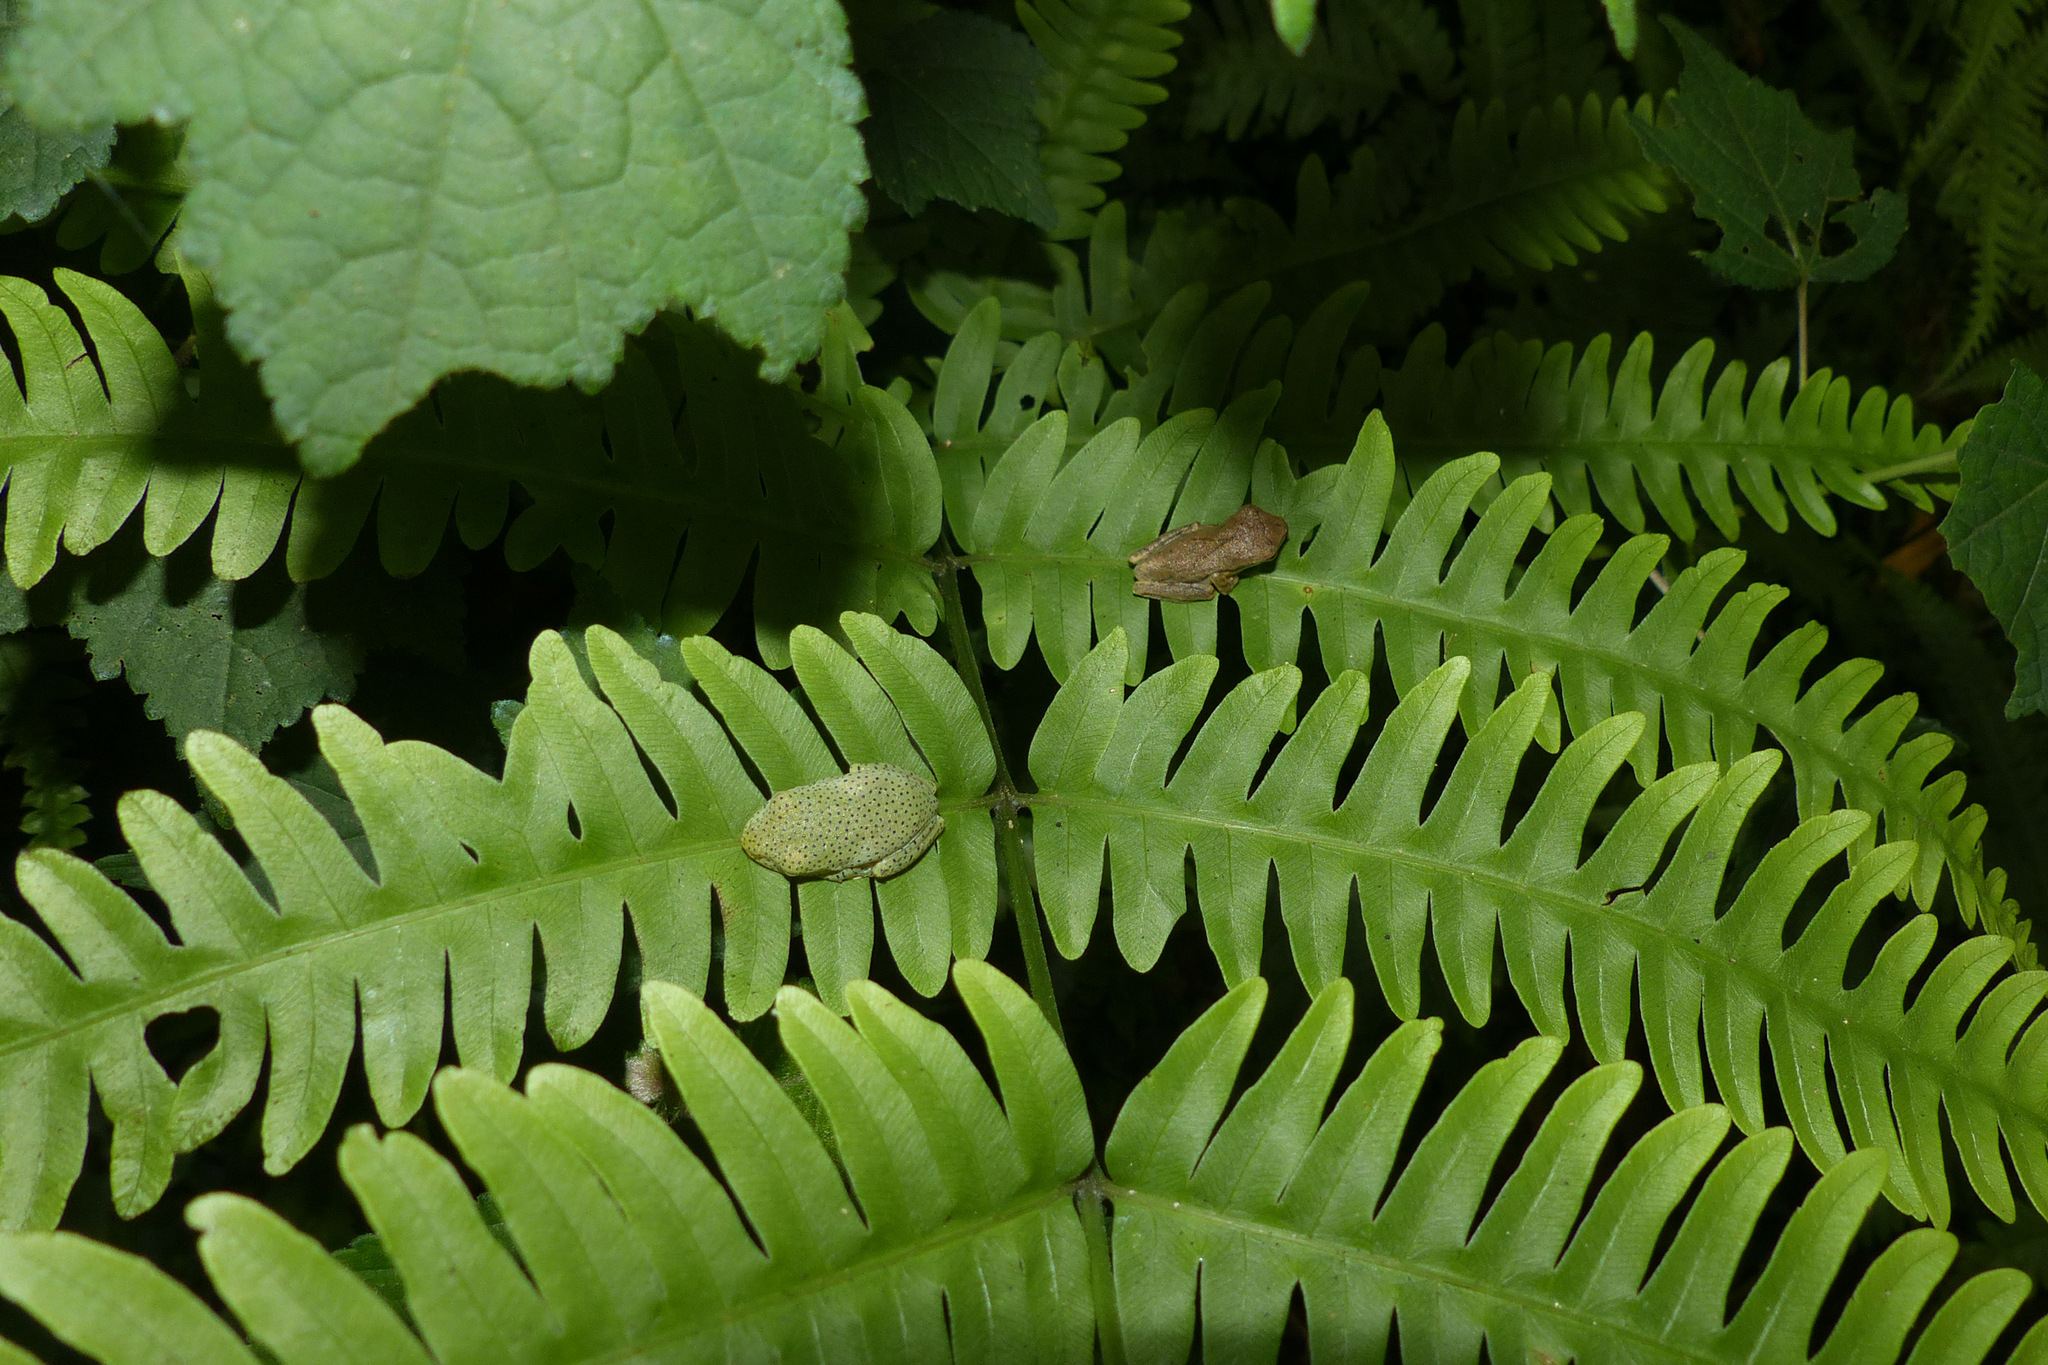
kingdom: Animalia
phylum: Chordata
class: Amphibia
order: Anura
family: Rhacophoridae
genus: Rhacophorus
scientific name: Rhacophorus malabaricus
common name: Malabar gliding frog
